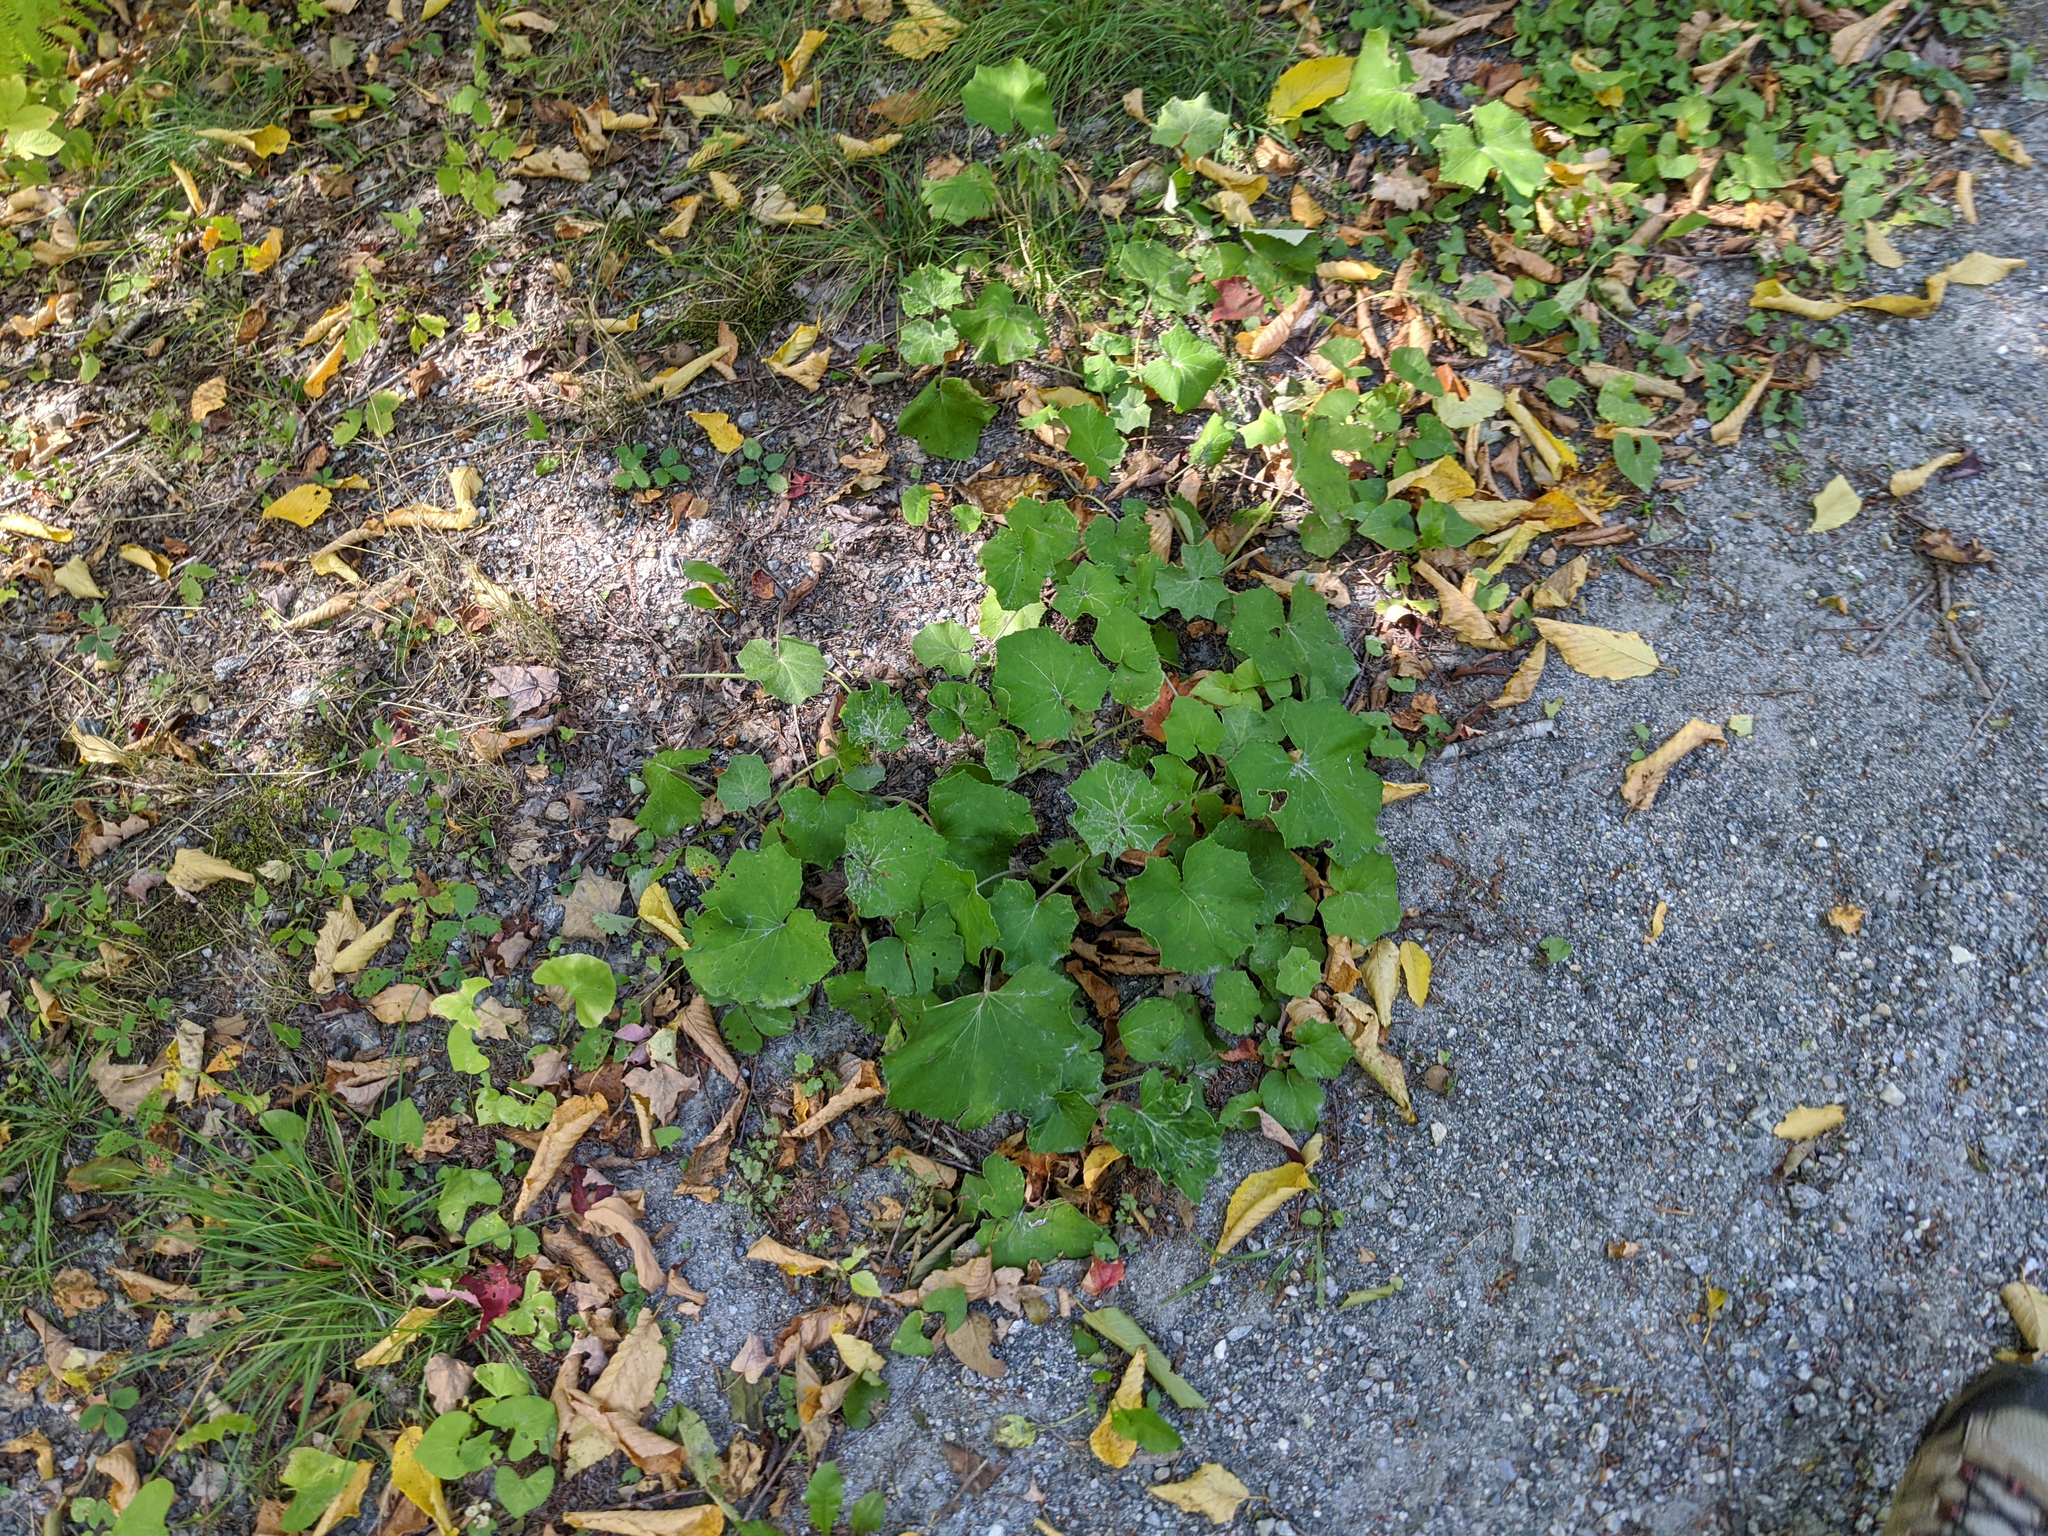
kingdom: Plantae
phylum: Tracheophyta
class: Magnoliopsida
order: Asterales
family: Asteraceae
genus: Tussilago
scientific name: Tussilago farfara
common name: Coltsfoot
